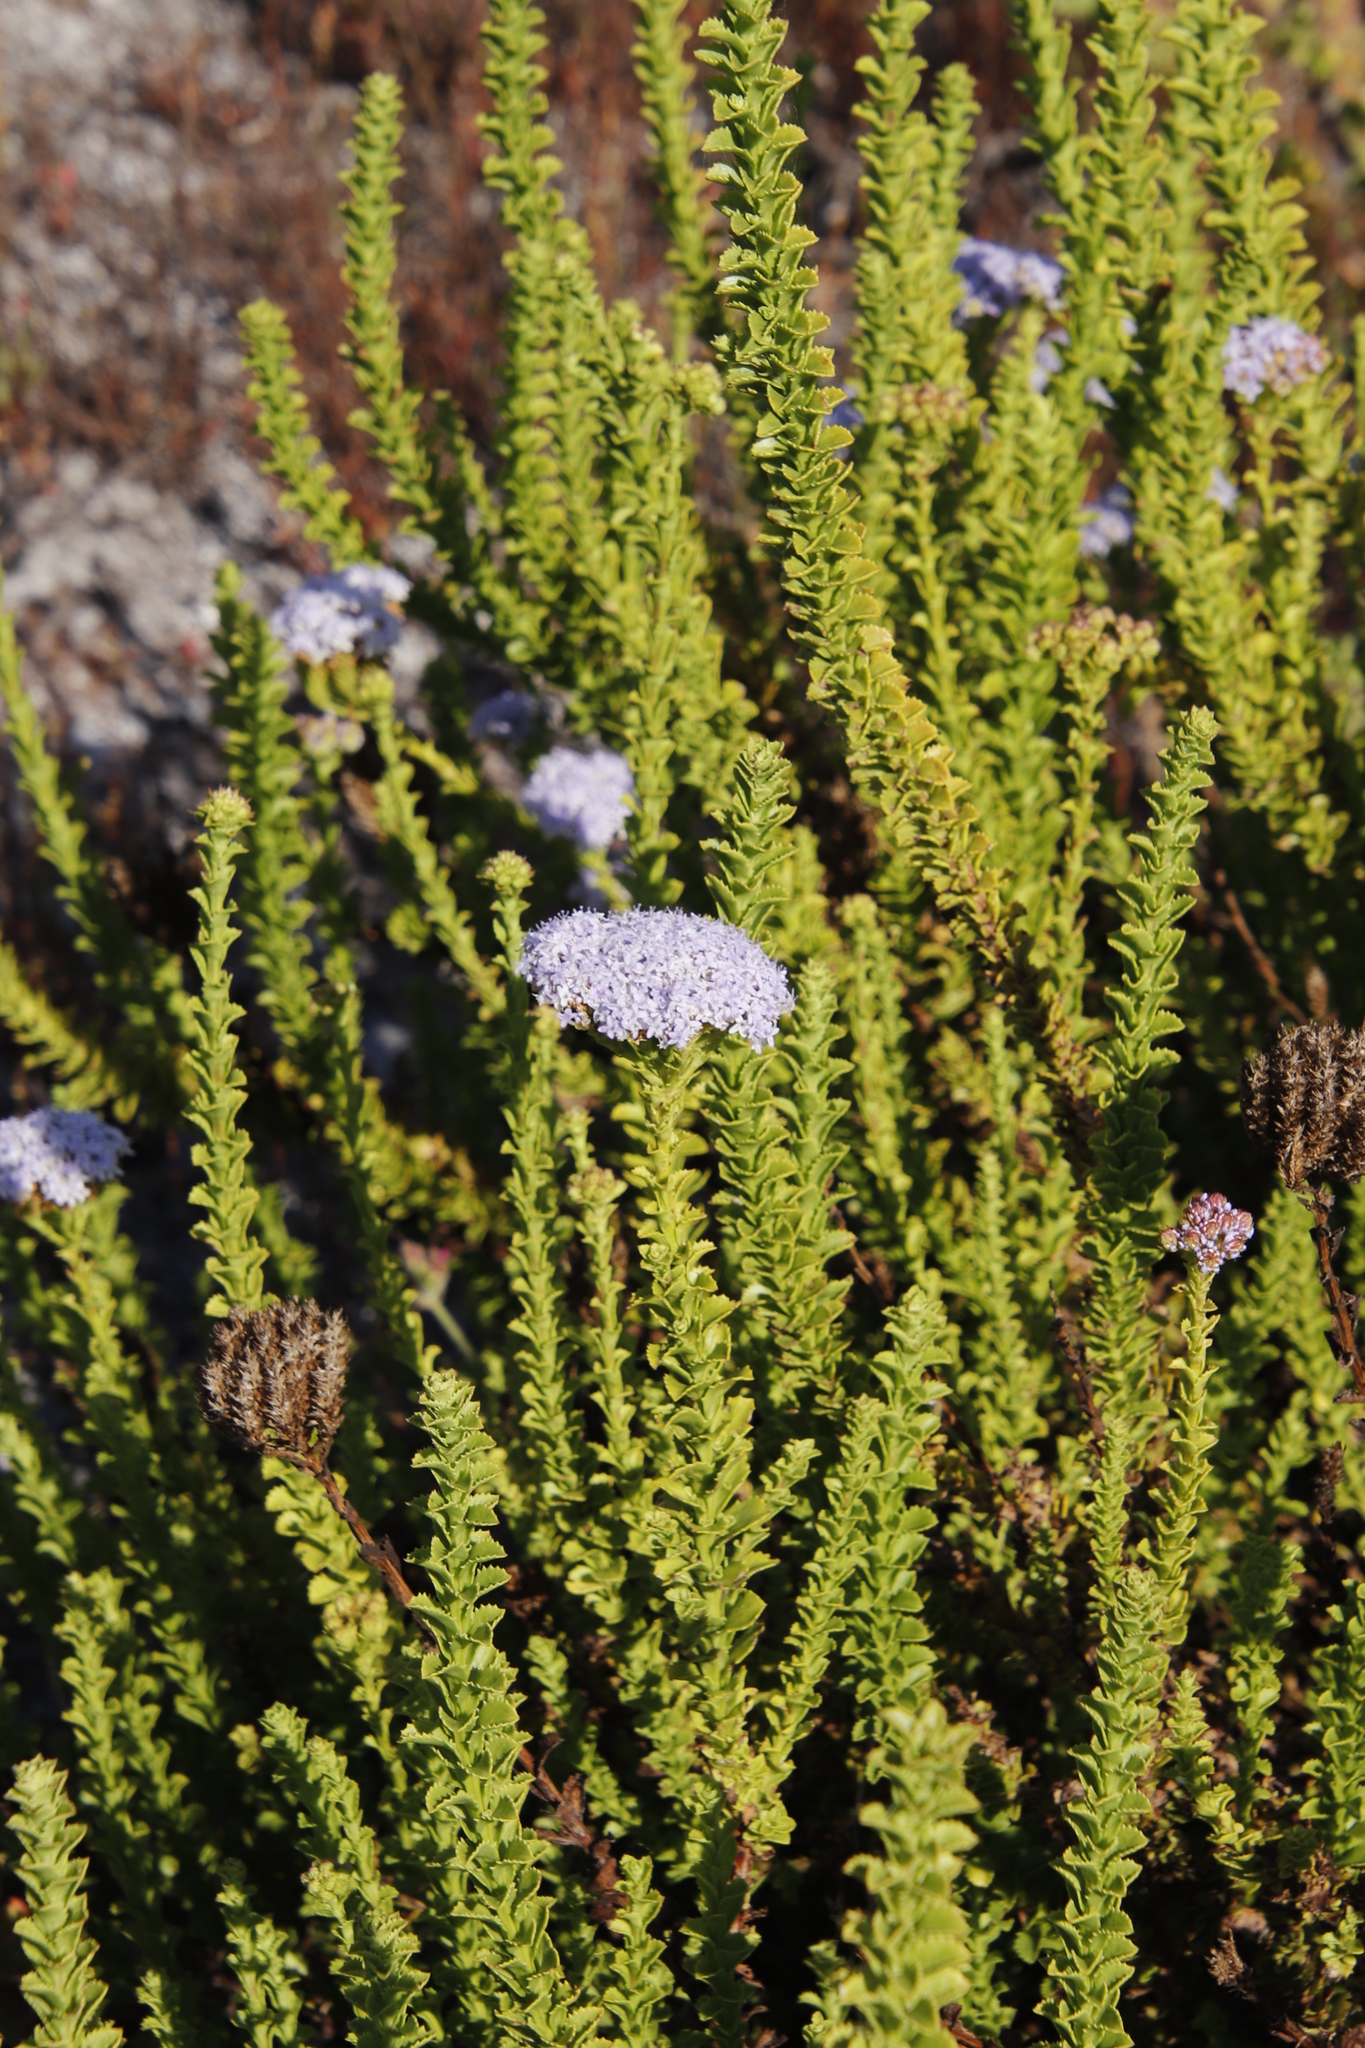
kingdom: Plantae
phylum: Tracheophyta
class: Magnoliopsida
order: Lamiales
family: Scrophulariaceae
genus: Pseudoselago
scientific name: Pseudoselago serrata
